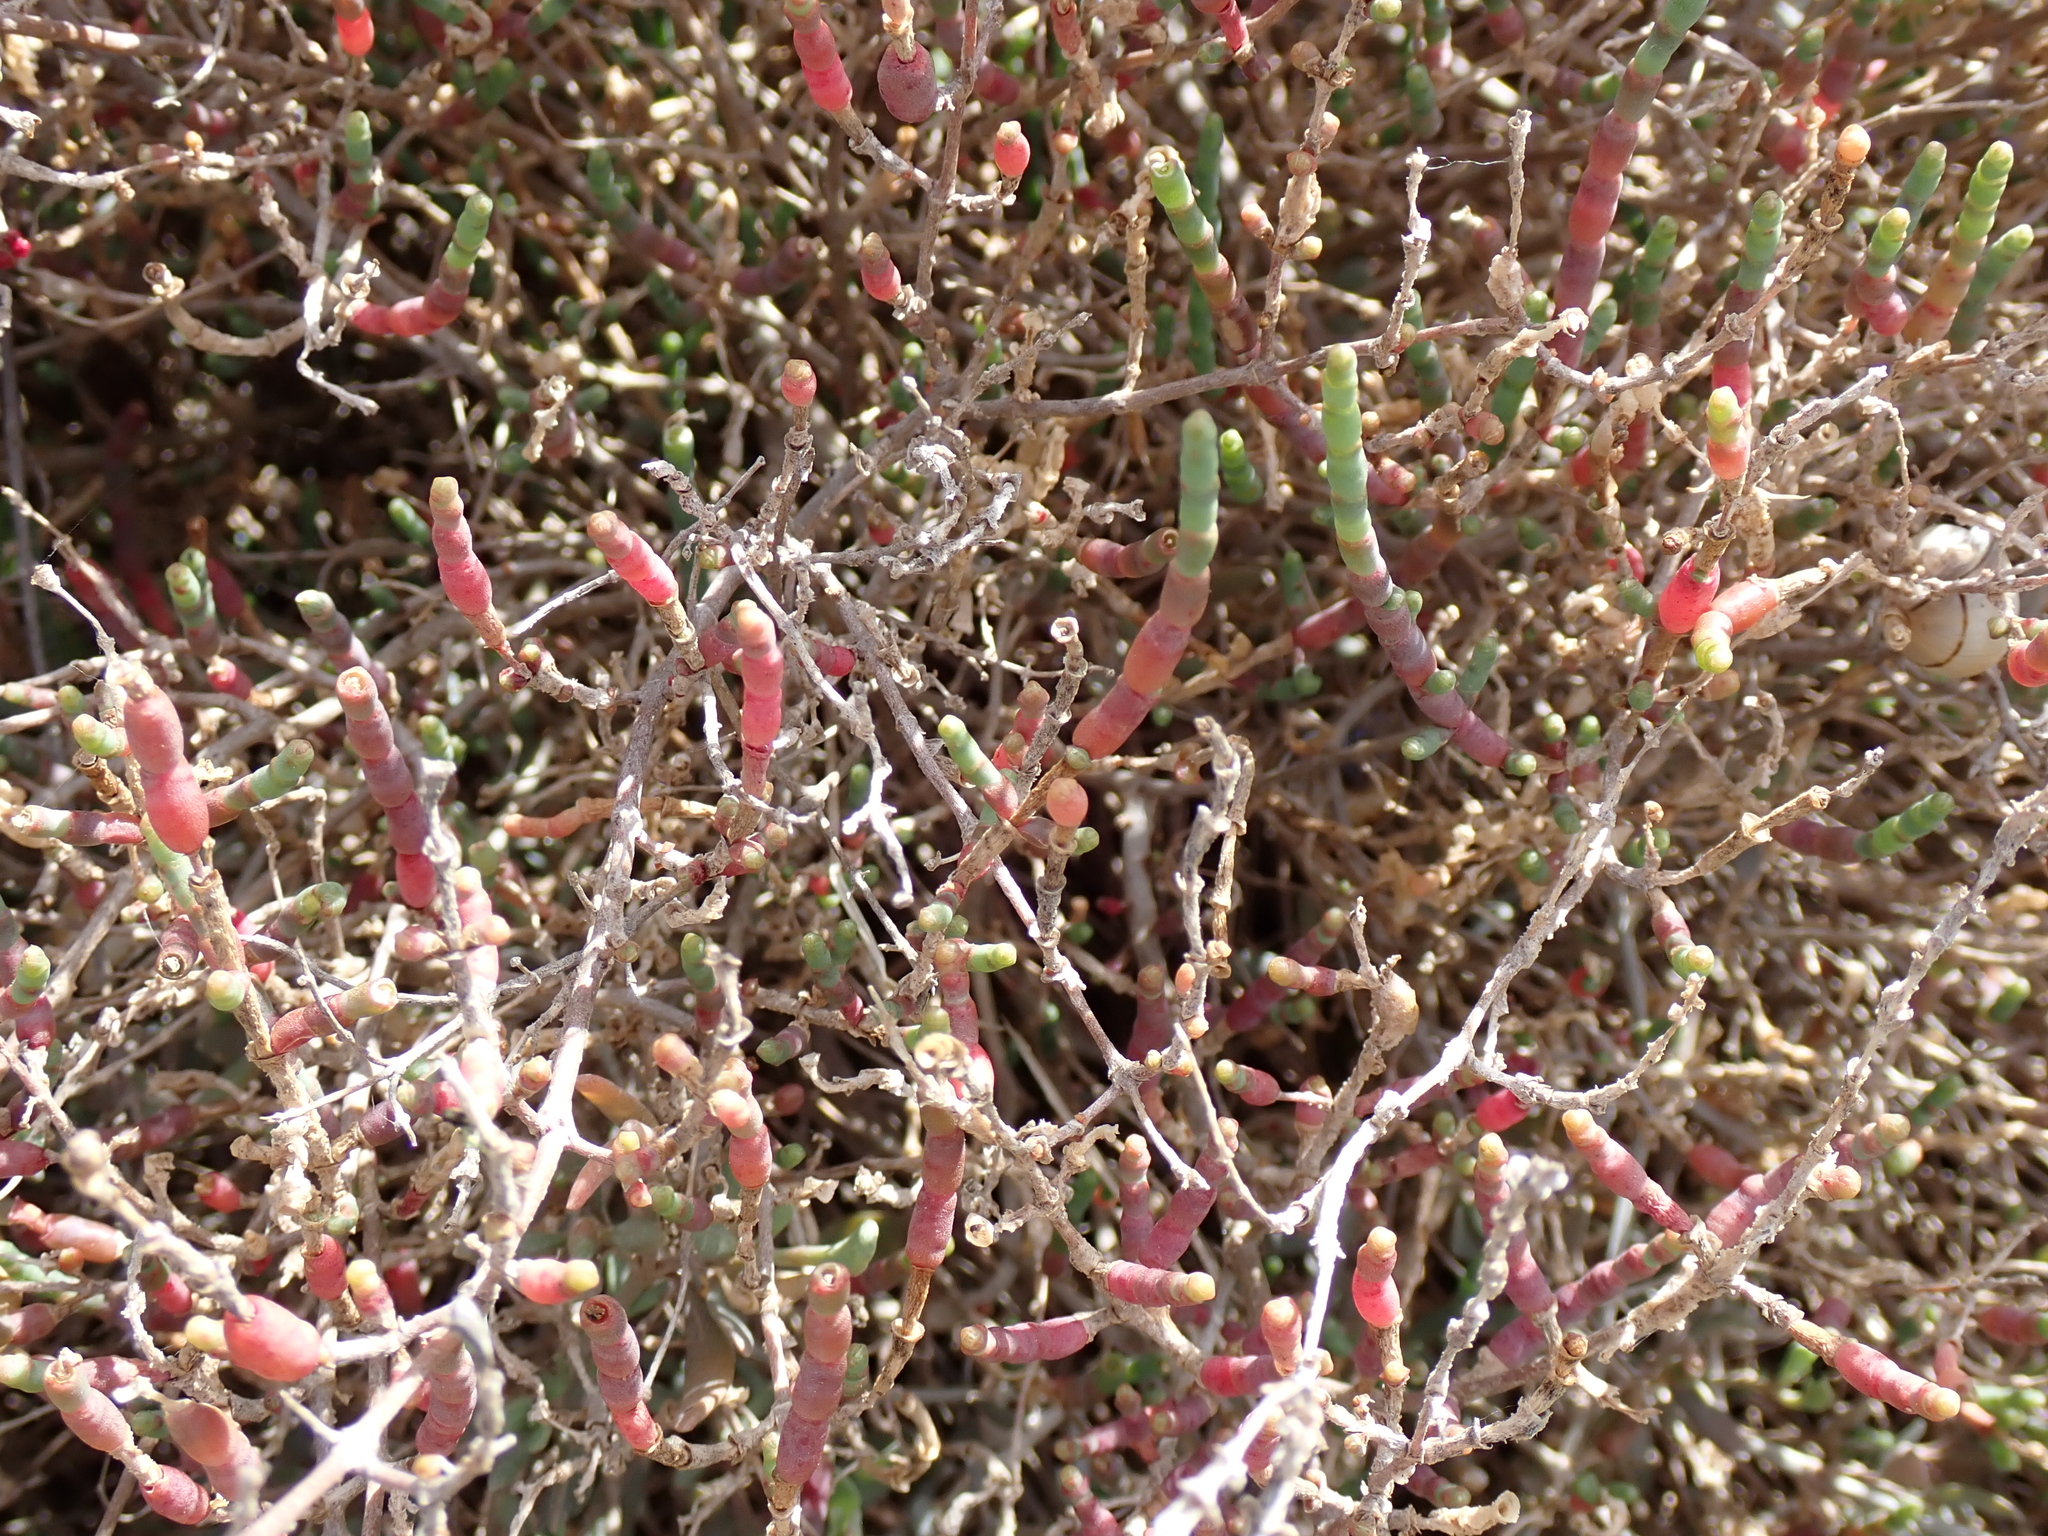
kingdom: Plantae
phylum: Tracheophyta
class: Magnoliopsida
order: Caryophyllales
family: Amaranthaceae
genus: Salicornia
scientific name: Salicornia fruticosa
